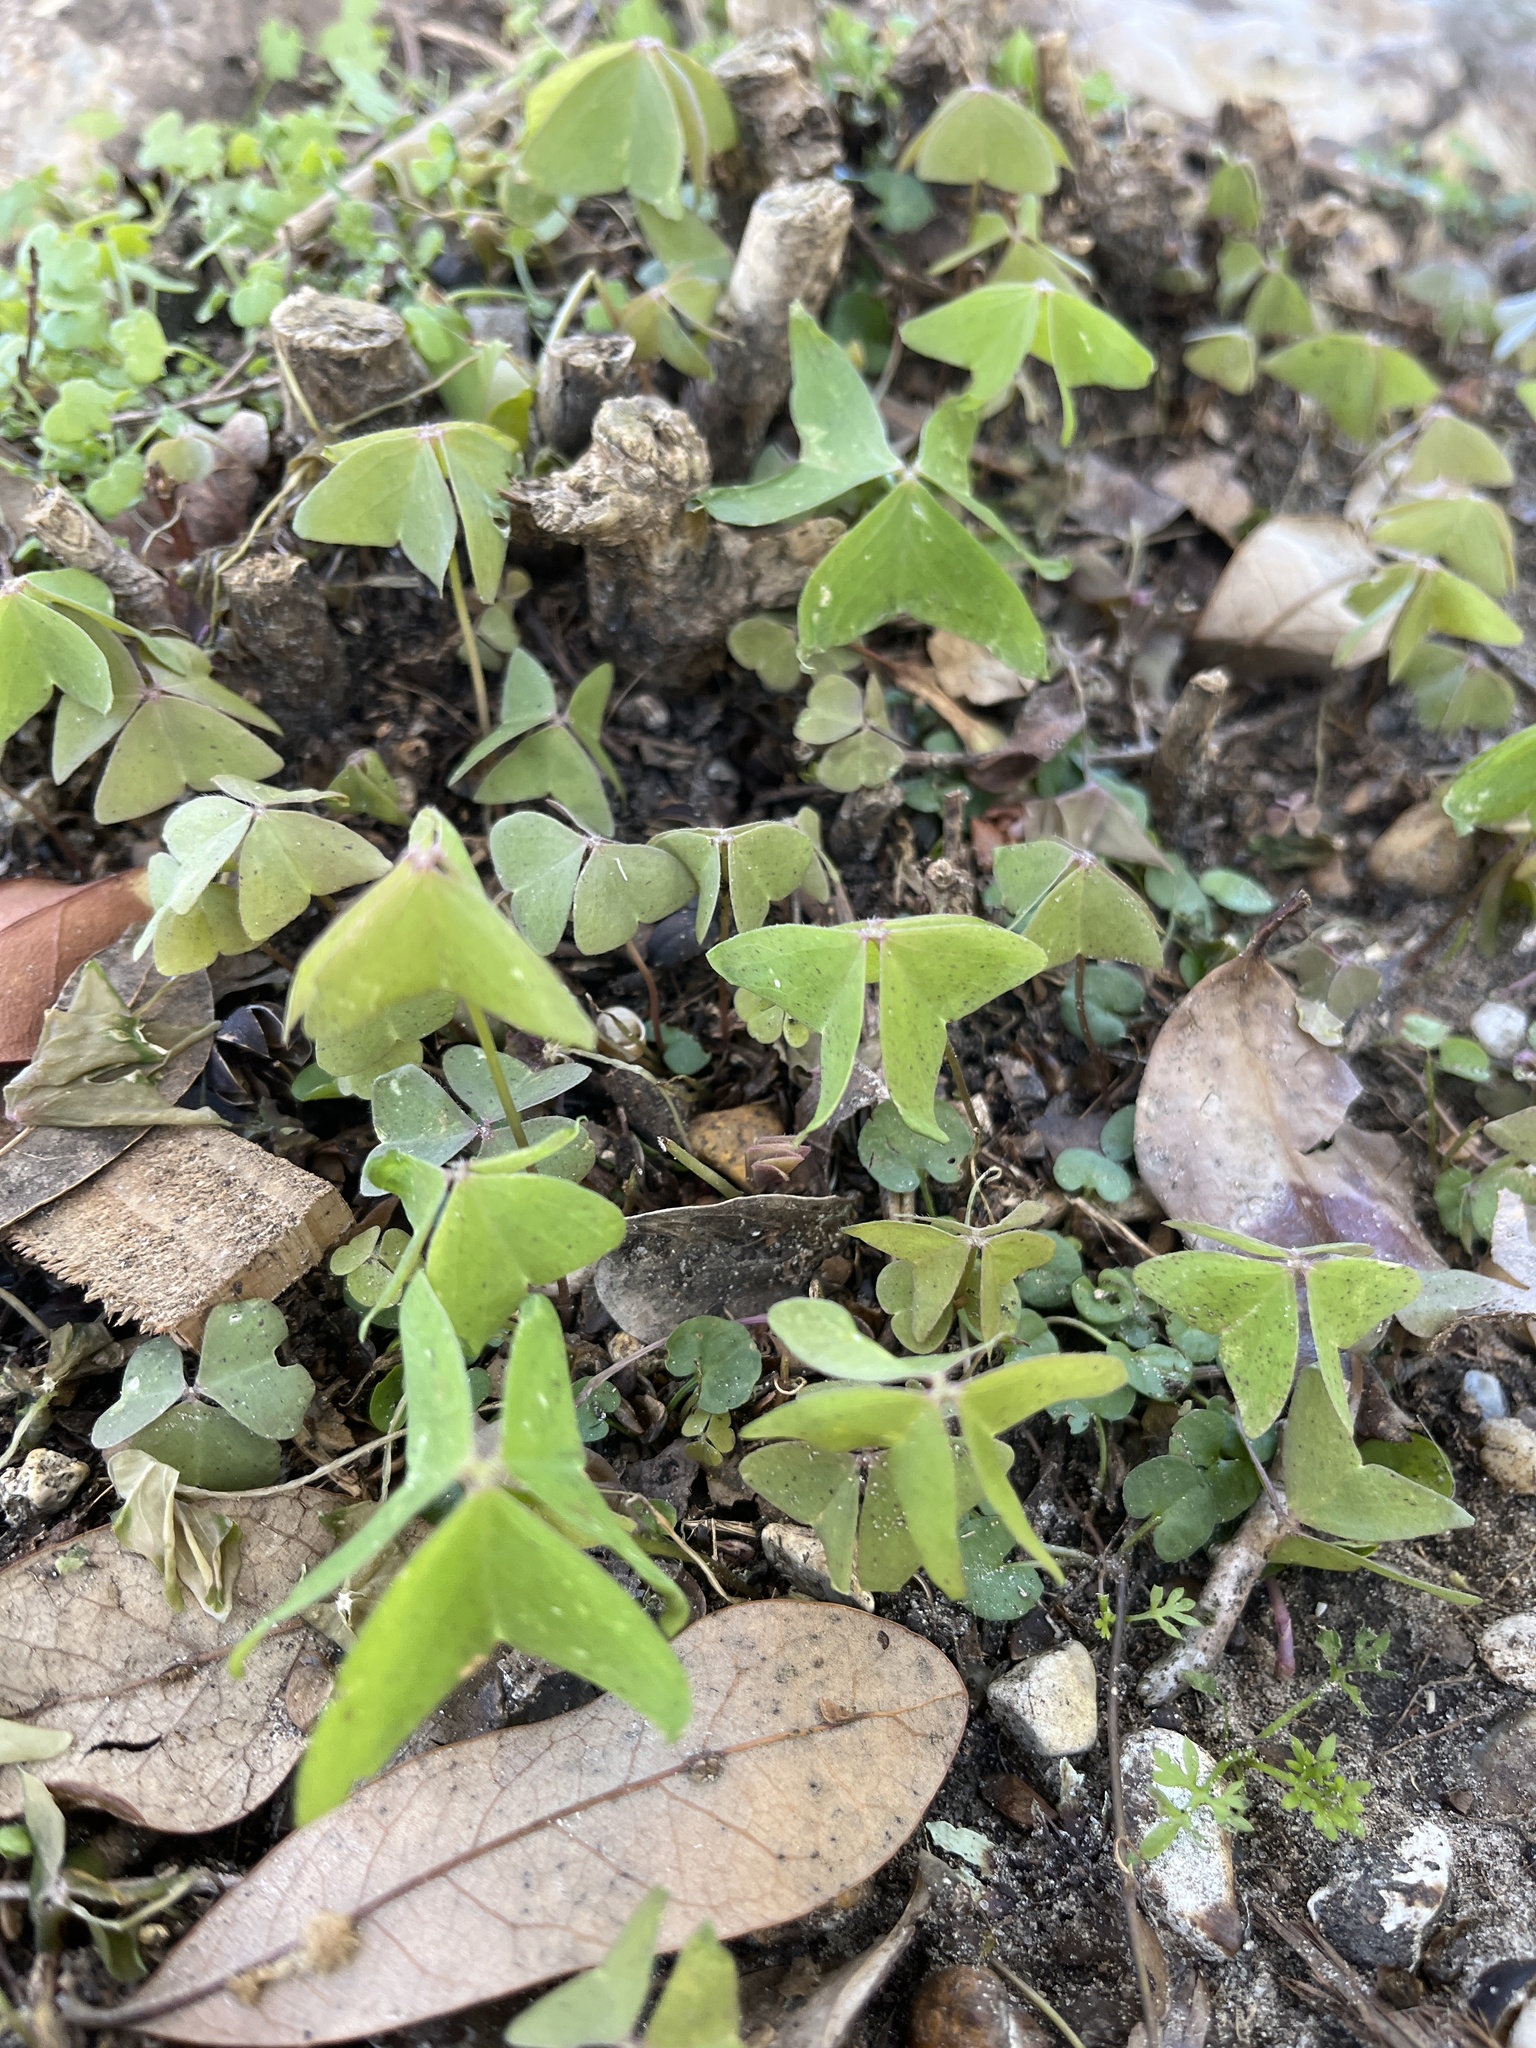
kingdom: Plantae
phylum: Tracheophyta
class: Magnoliopsida
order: Oxalidales
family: Oxalidaceae
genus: Oxalis
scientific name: Oxalis intermedia
